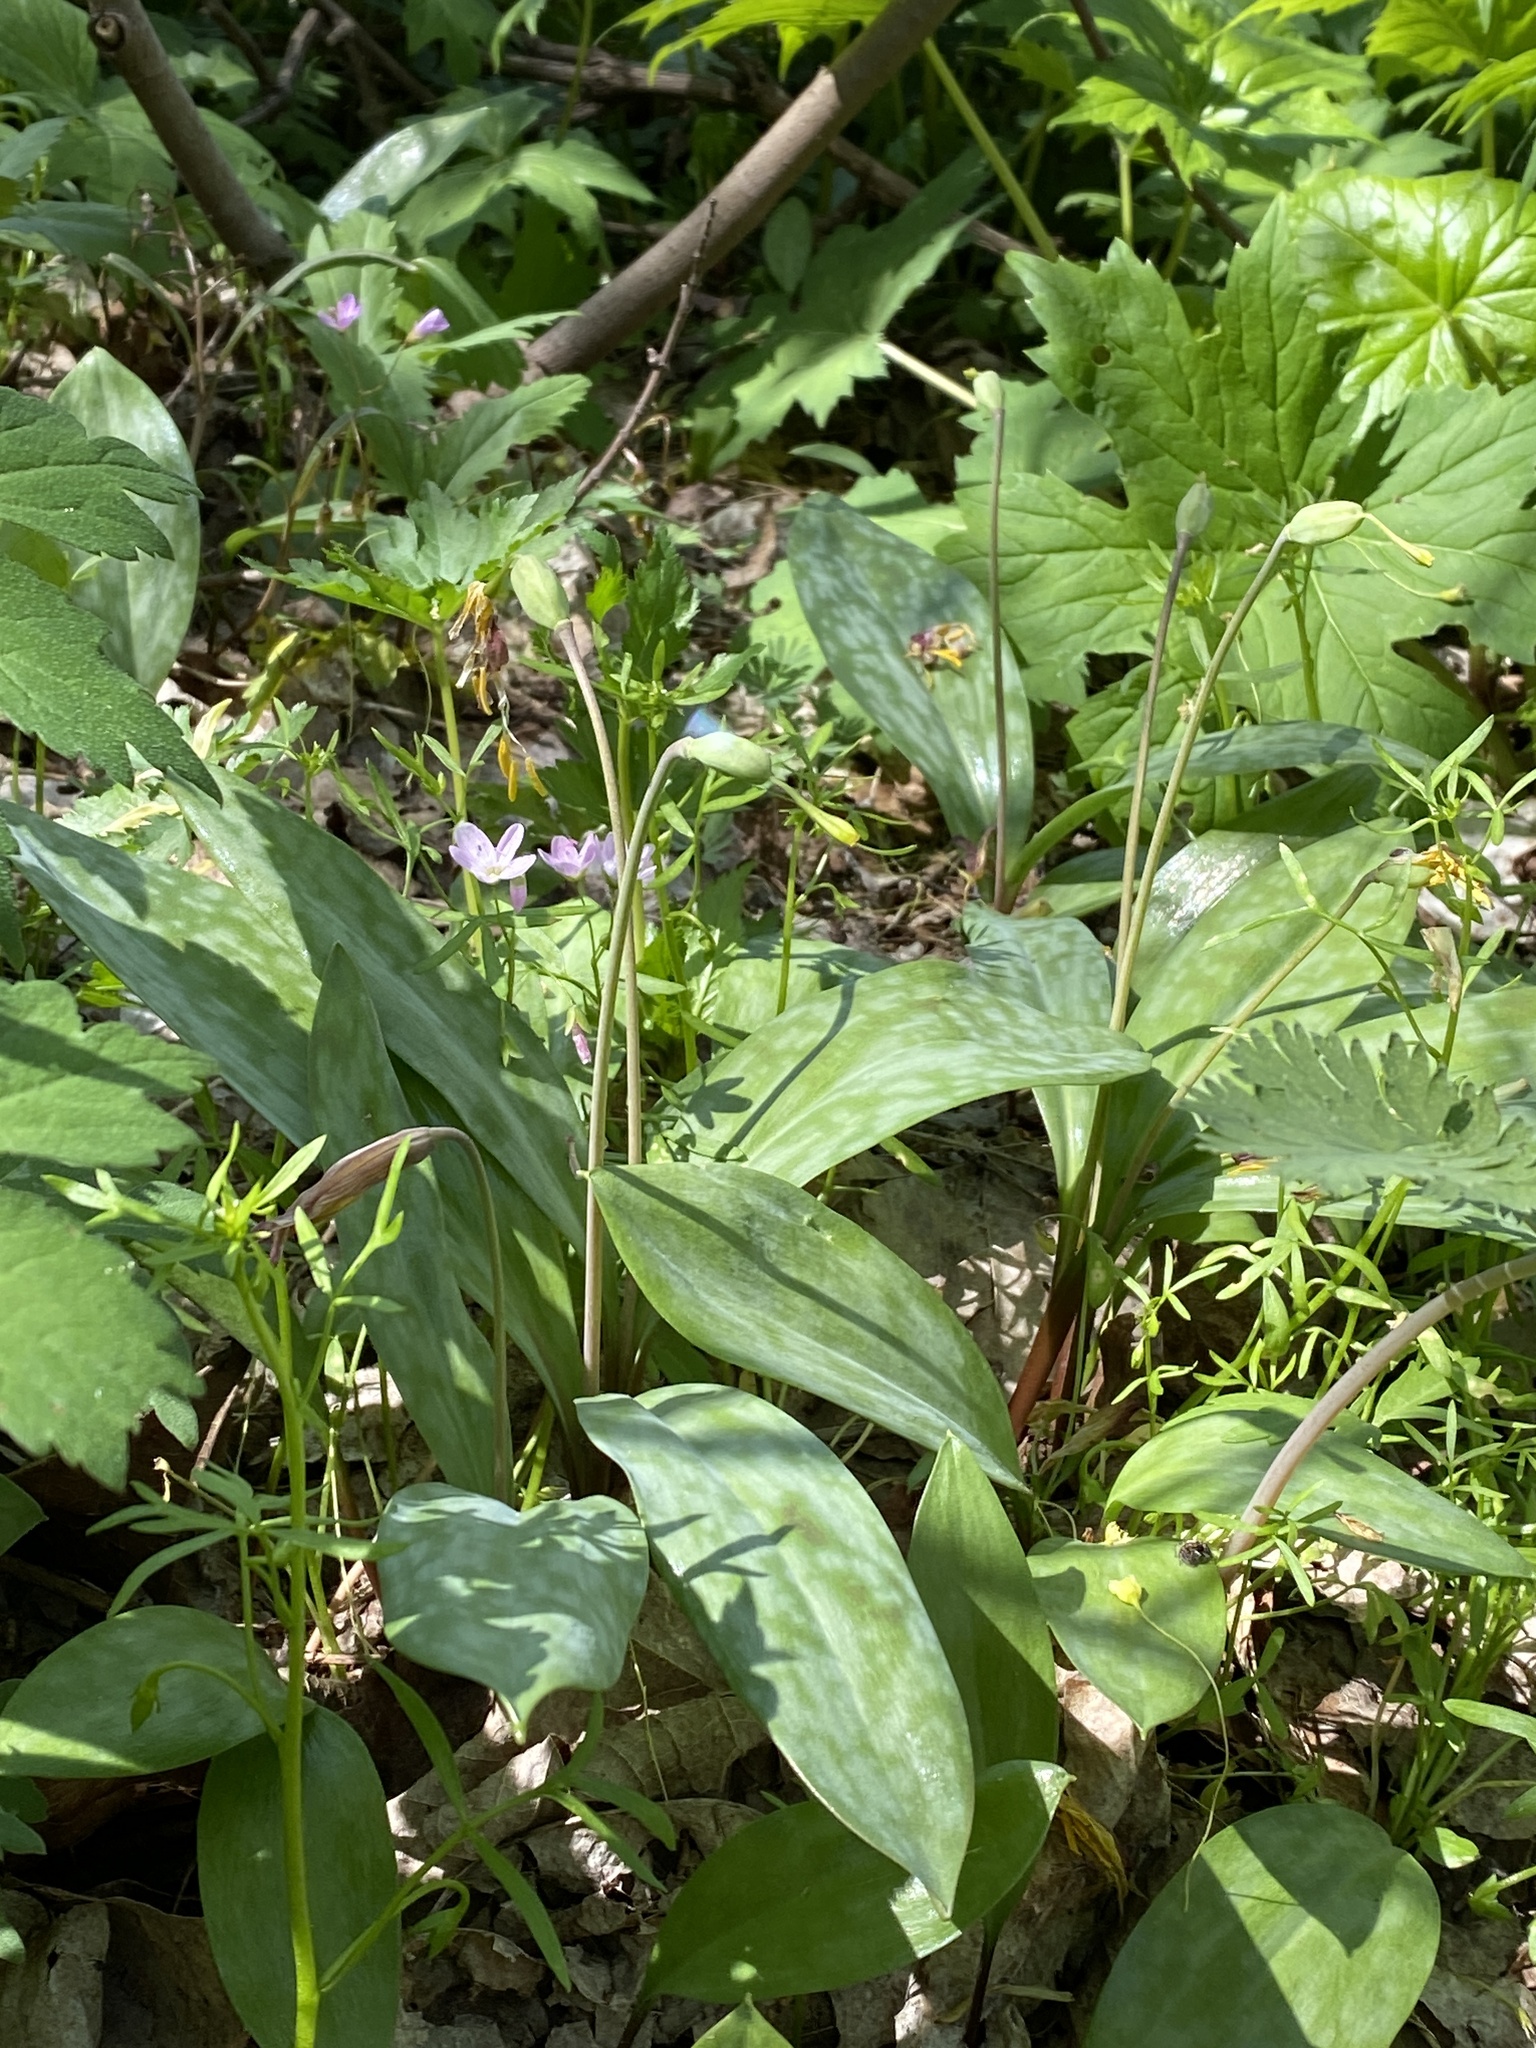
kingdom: Plantae
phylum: Tracheophyta
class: Liliopsida
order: Liliales
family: Liliaceae
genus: Erythronium
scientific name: Erythronium americanum
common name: Yellow adder's-tongue
